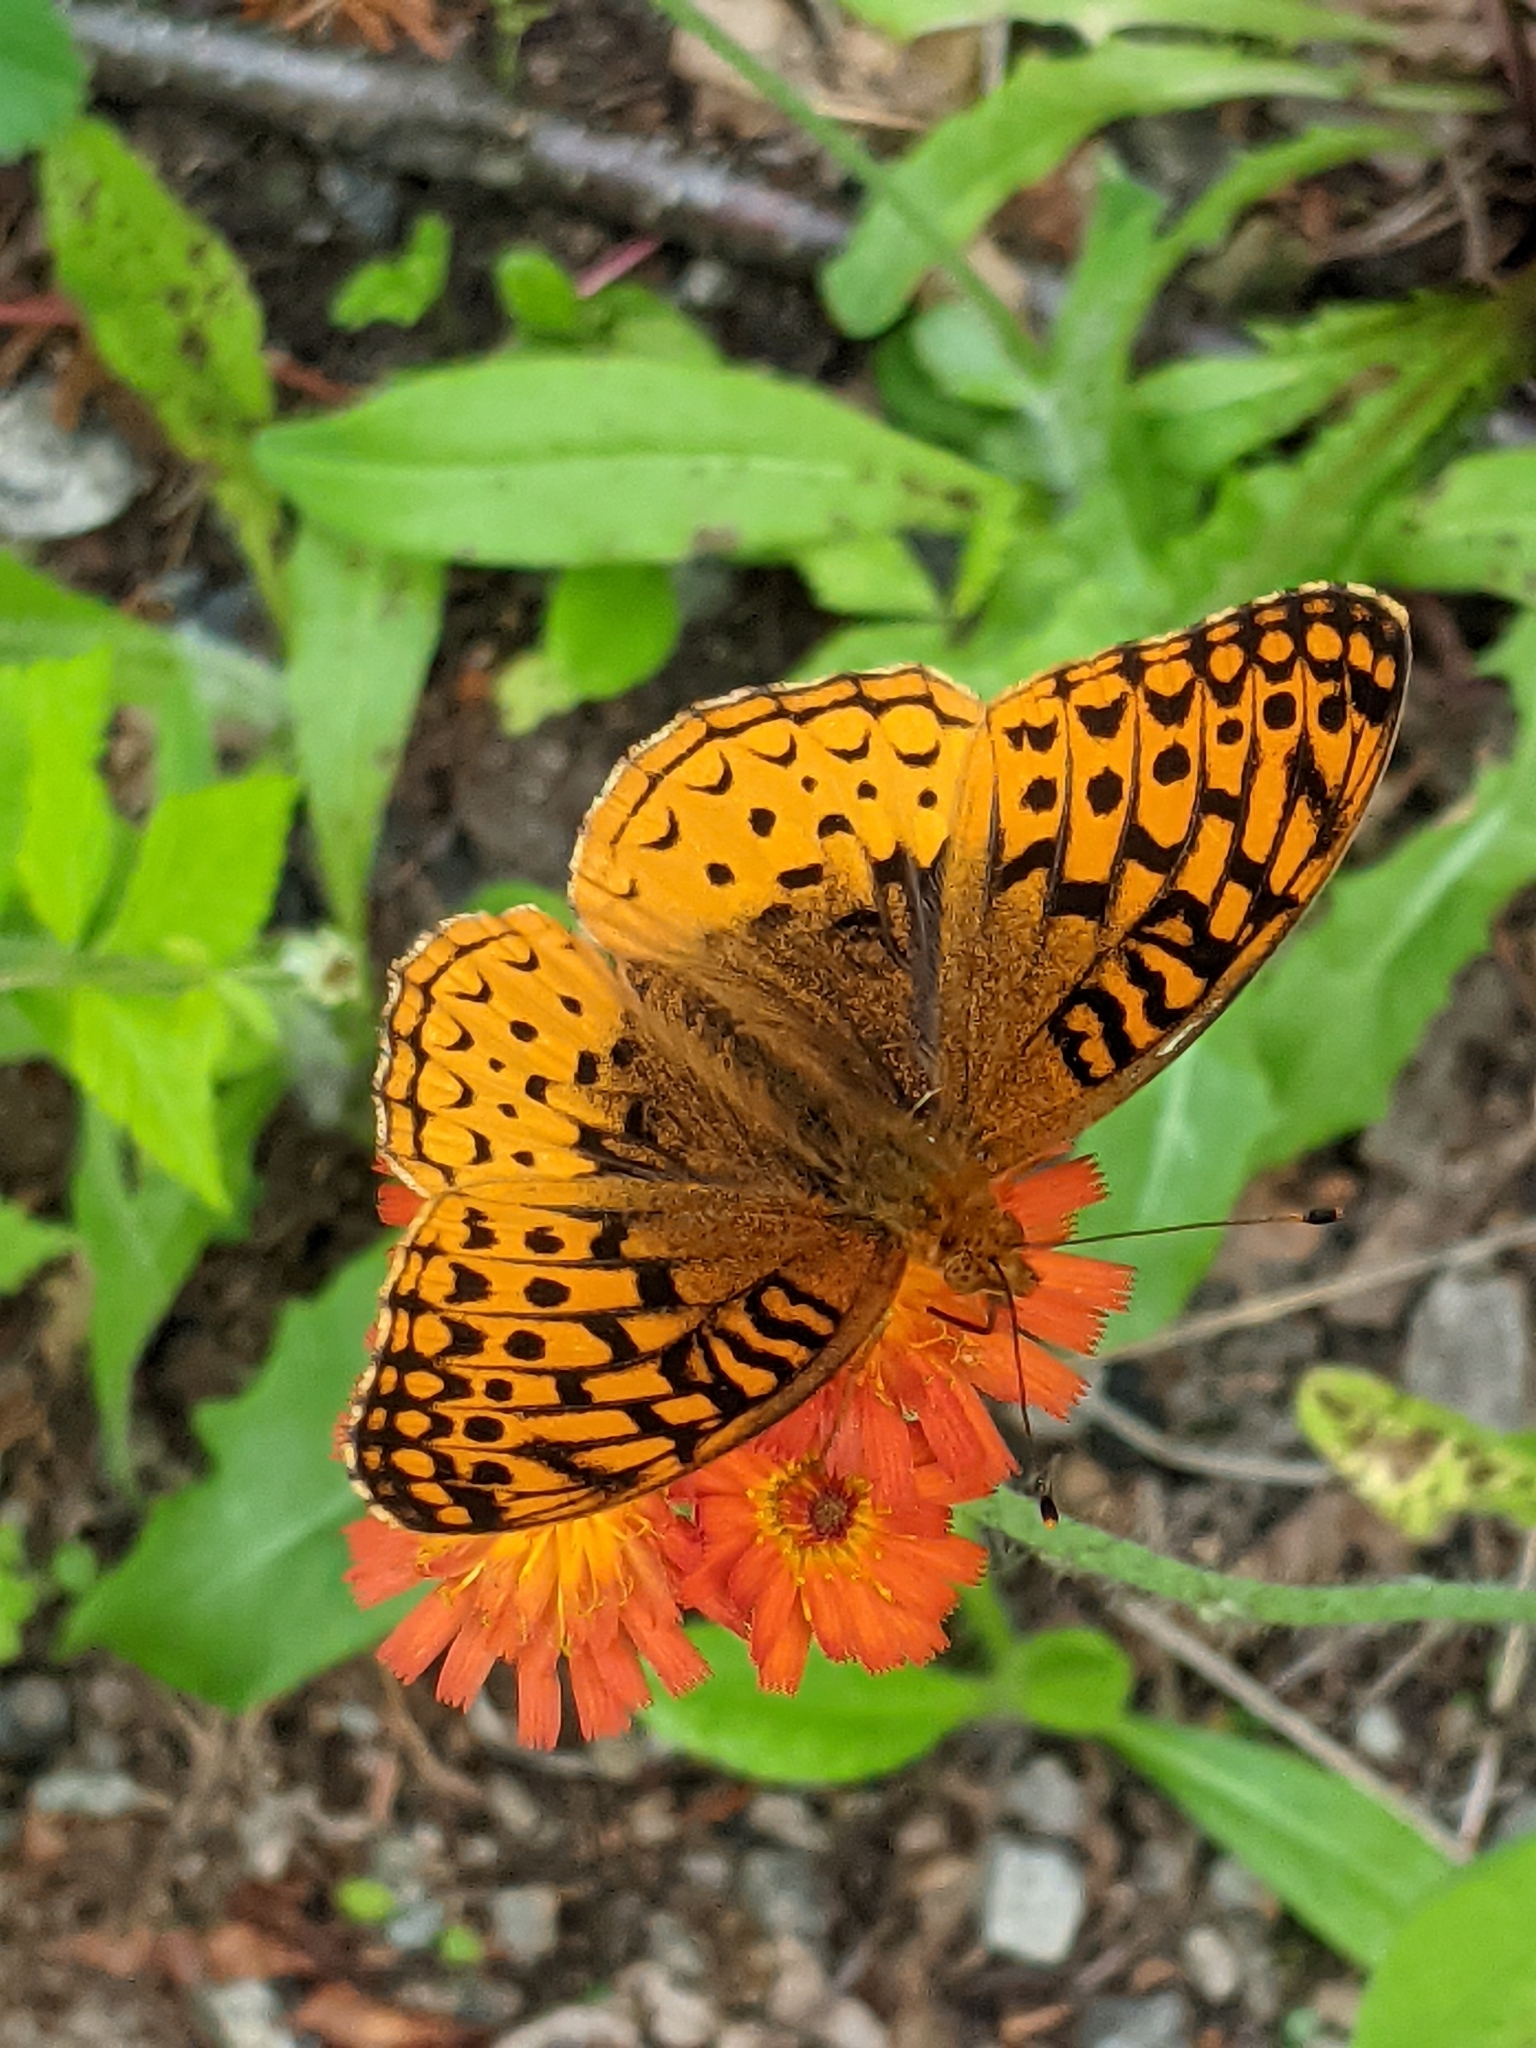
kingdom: Animalia
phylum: Arthropoda
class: Insecta
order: Lepidoptera
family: Nymphalidae
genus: Speyeria
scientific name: Speyeria cybele
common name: Great spangled fritillary
